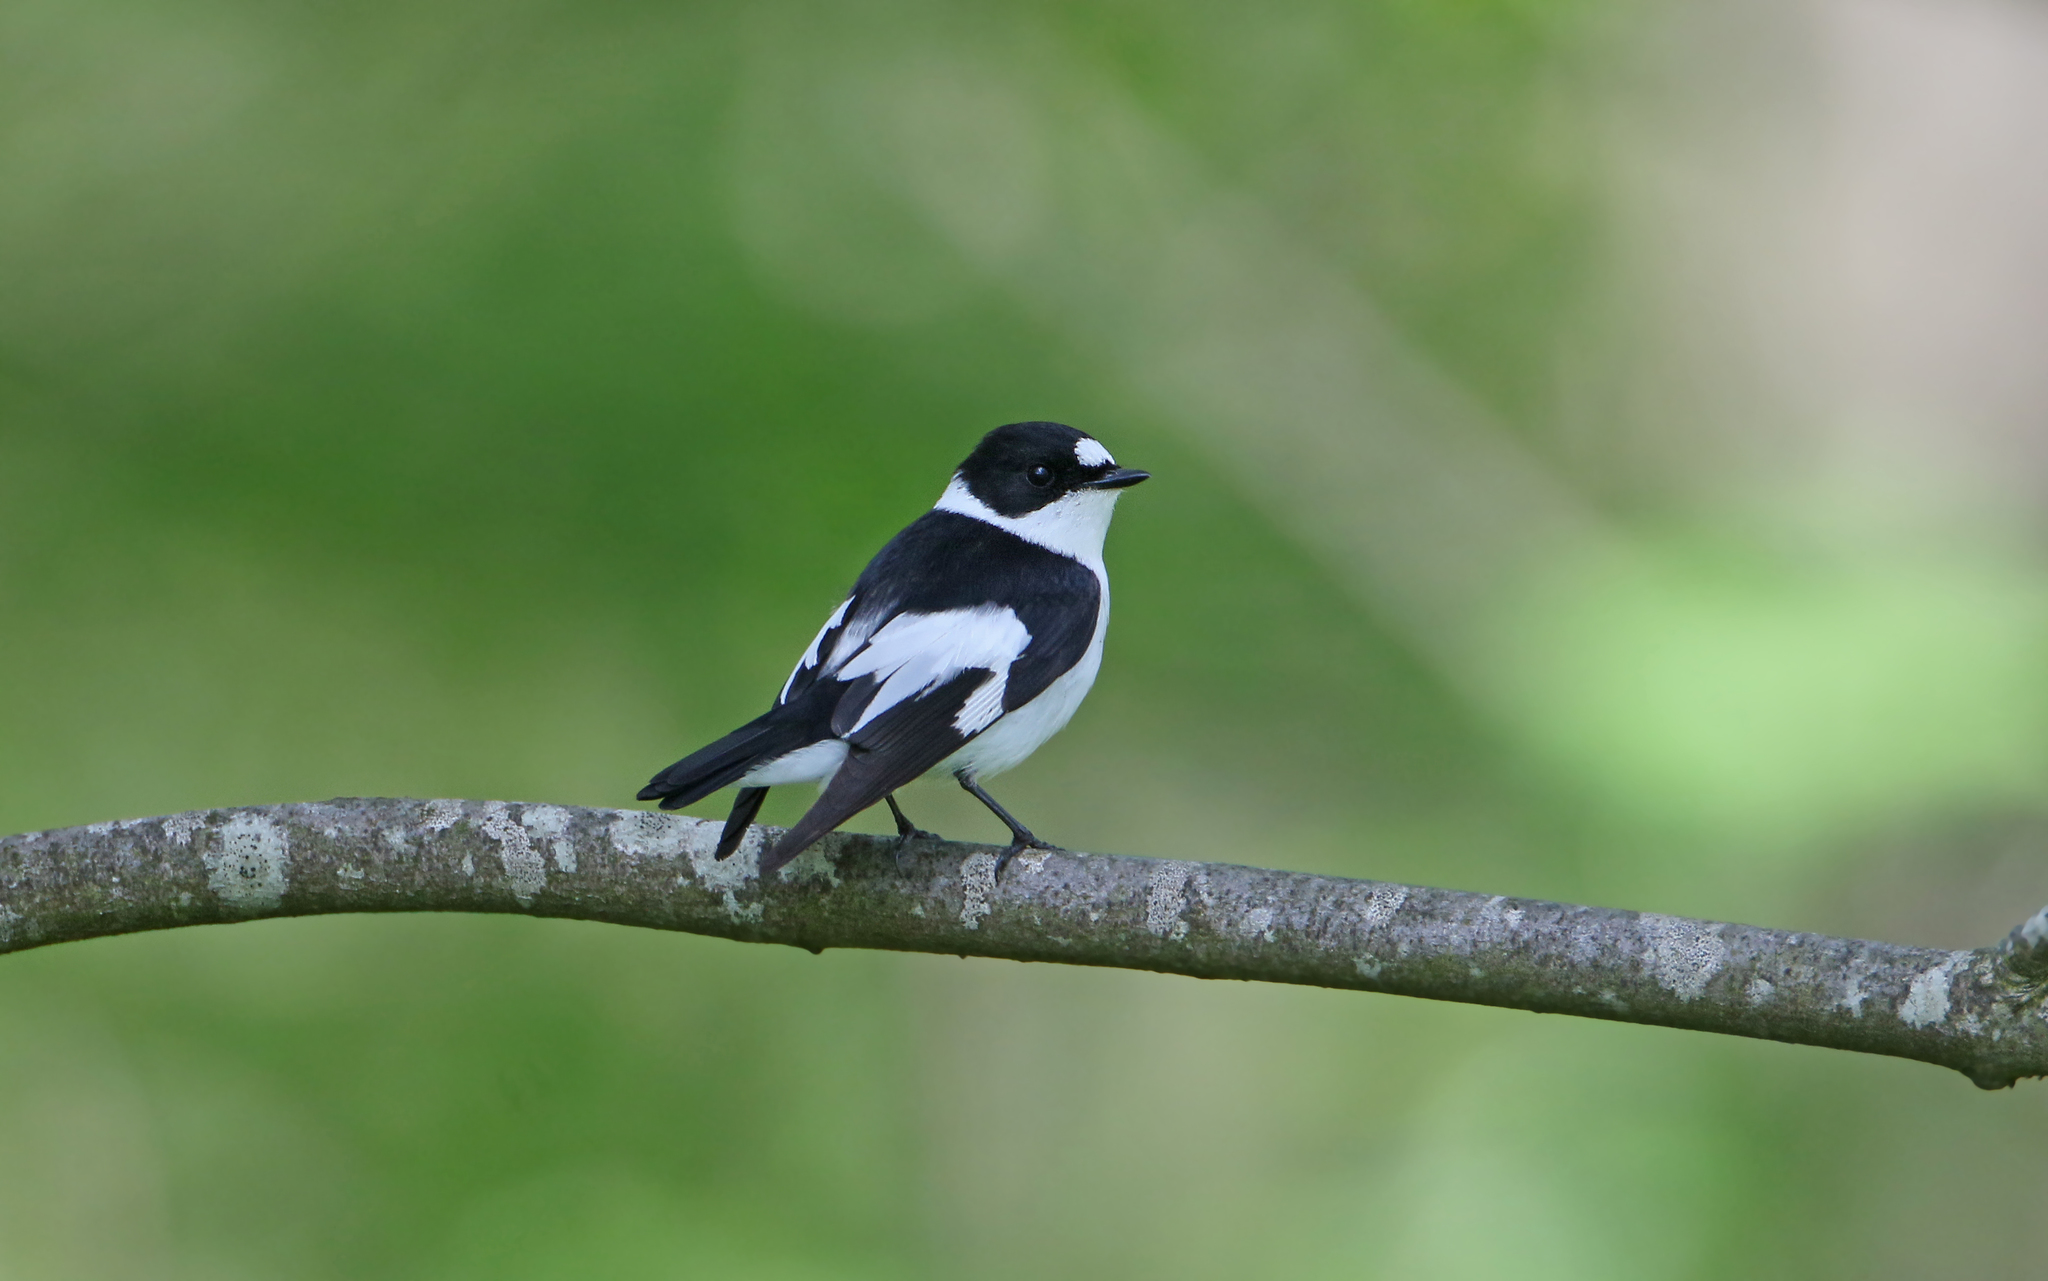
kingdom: Animalia
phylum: Chordata
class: Aves
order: Passeriformes
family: Muscicapidae
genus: Ficedula
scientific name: Ficedula albicollis
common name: Collared flycatcher
